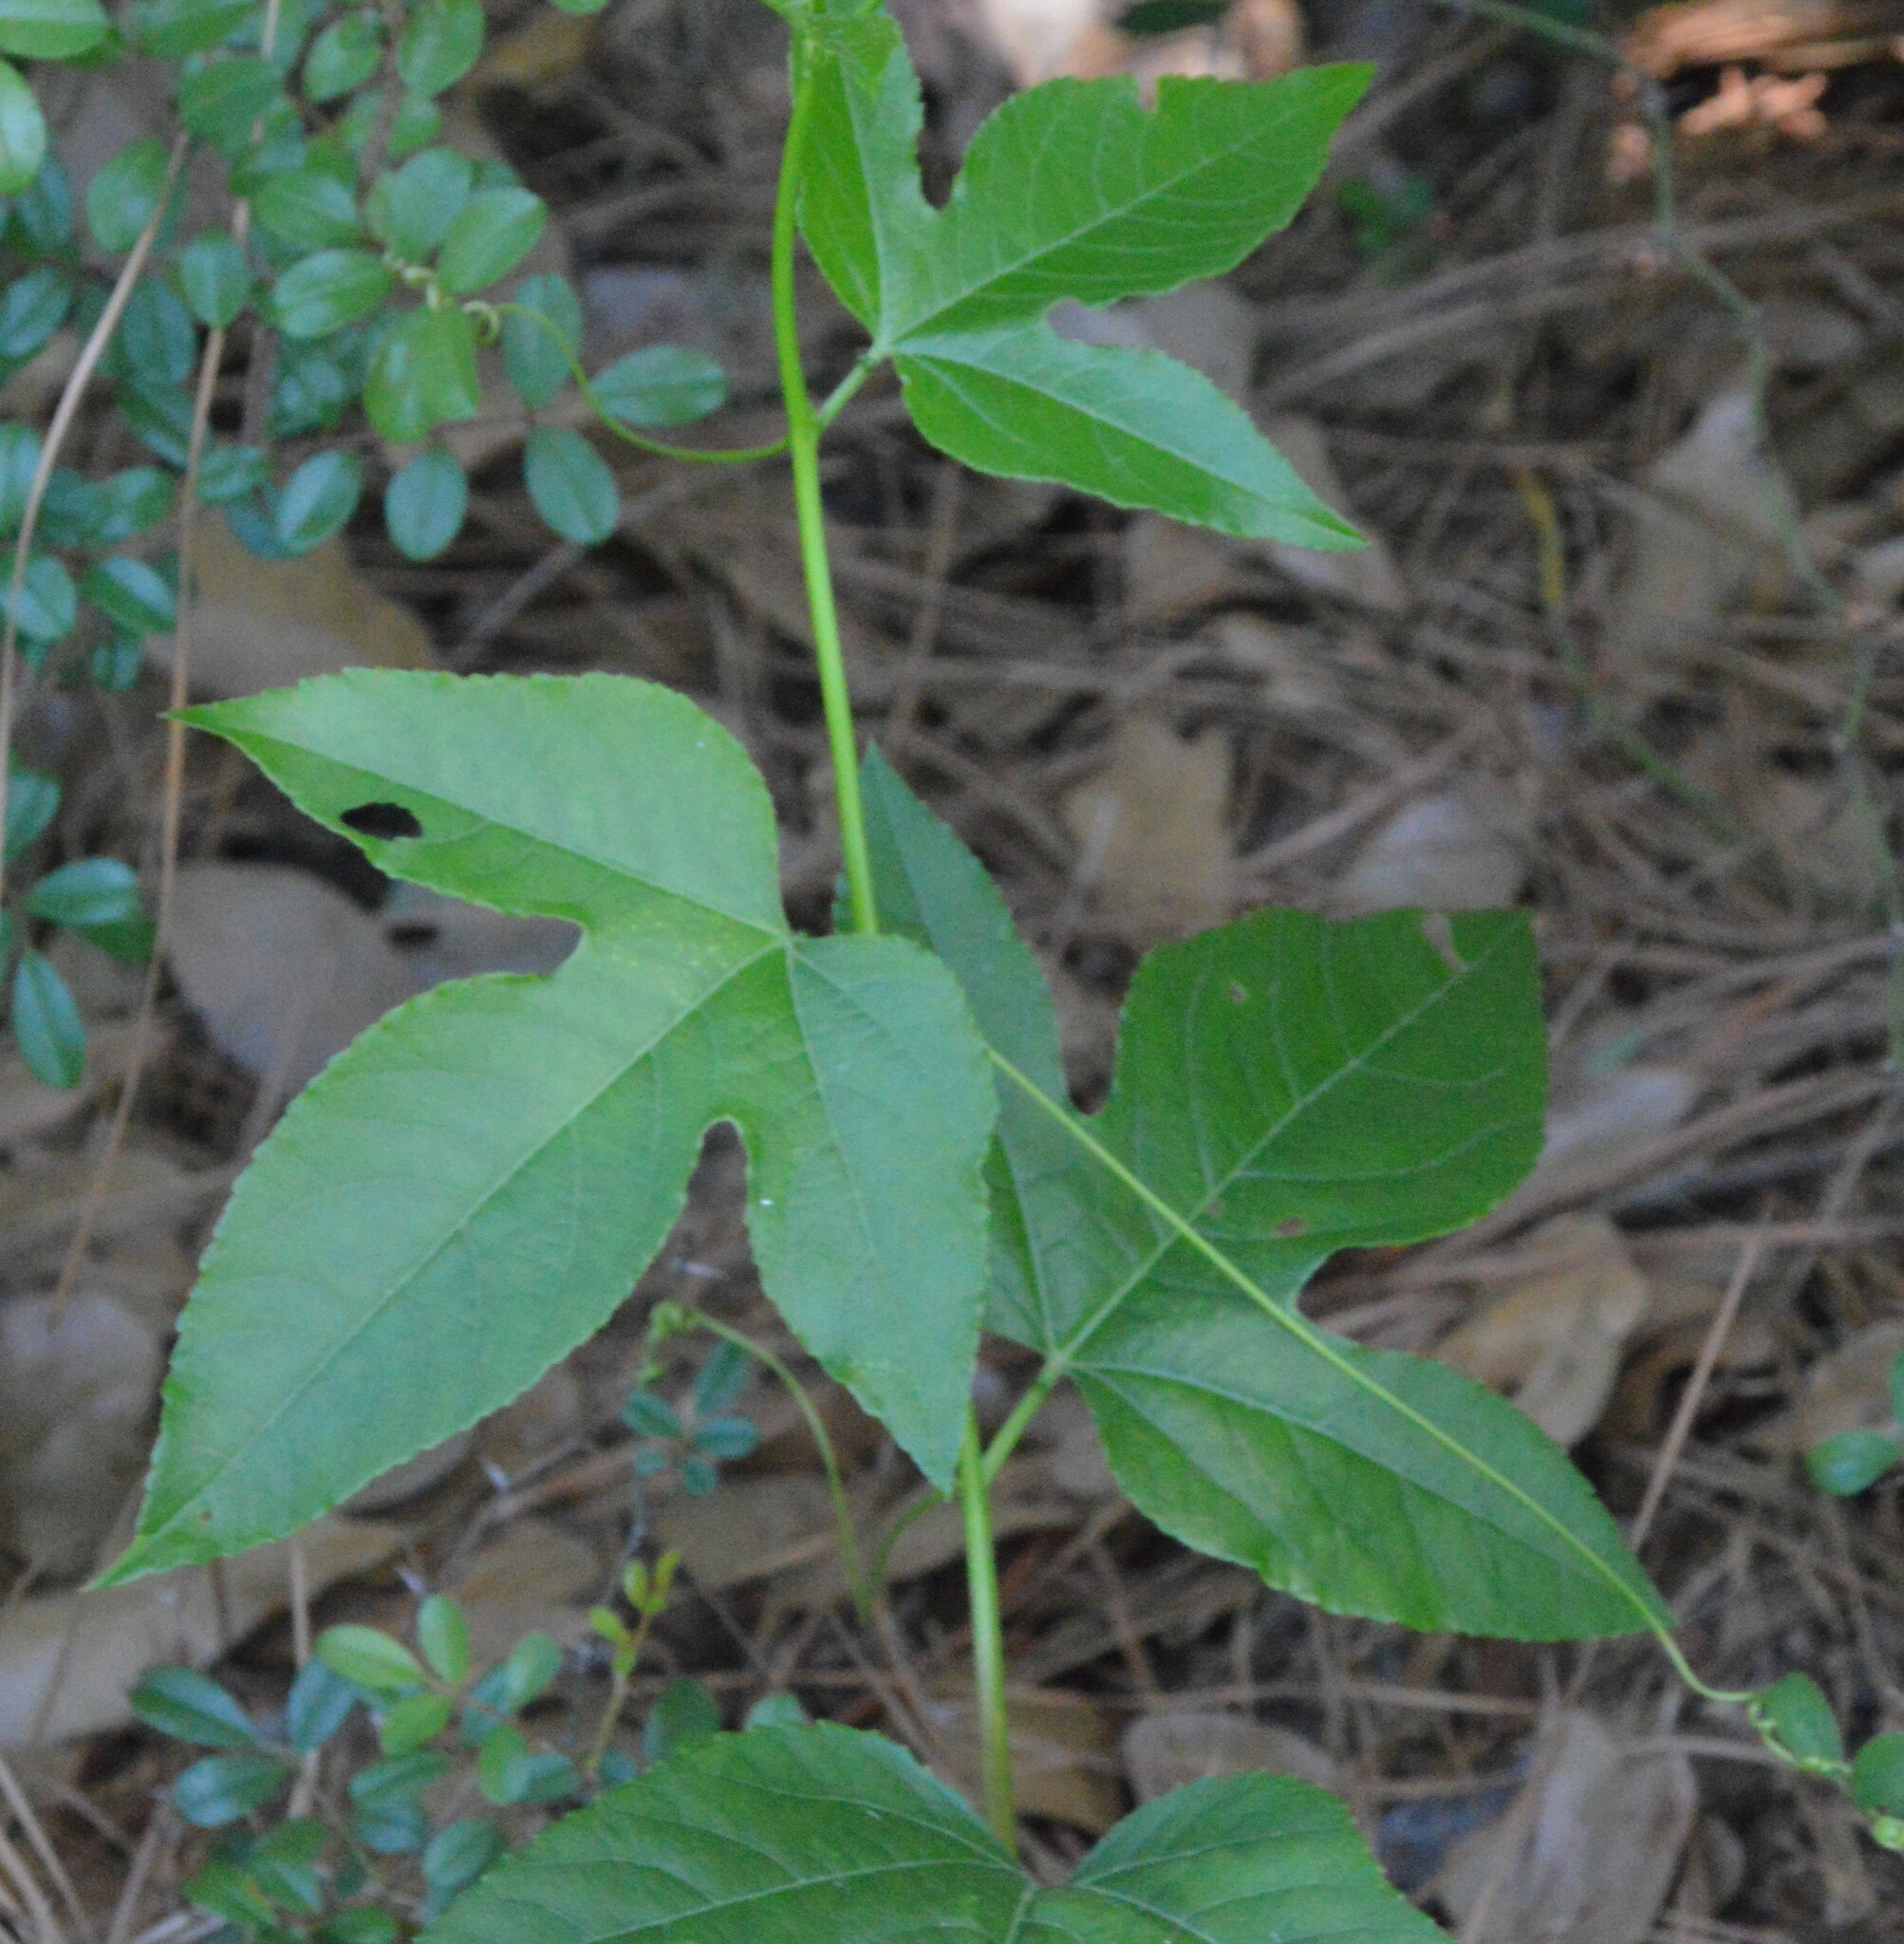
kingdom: Plantae
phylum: Tracheophyta
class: Magnoliopsida
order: Malpighiales
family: Passifloraceae
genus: Passiflora
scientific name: Passiflora incarnata
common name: Apricot-vine
